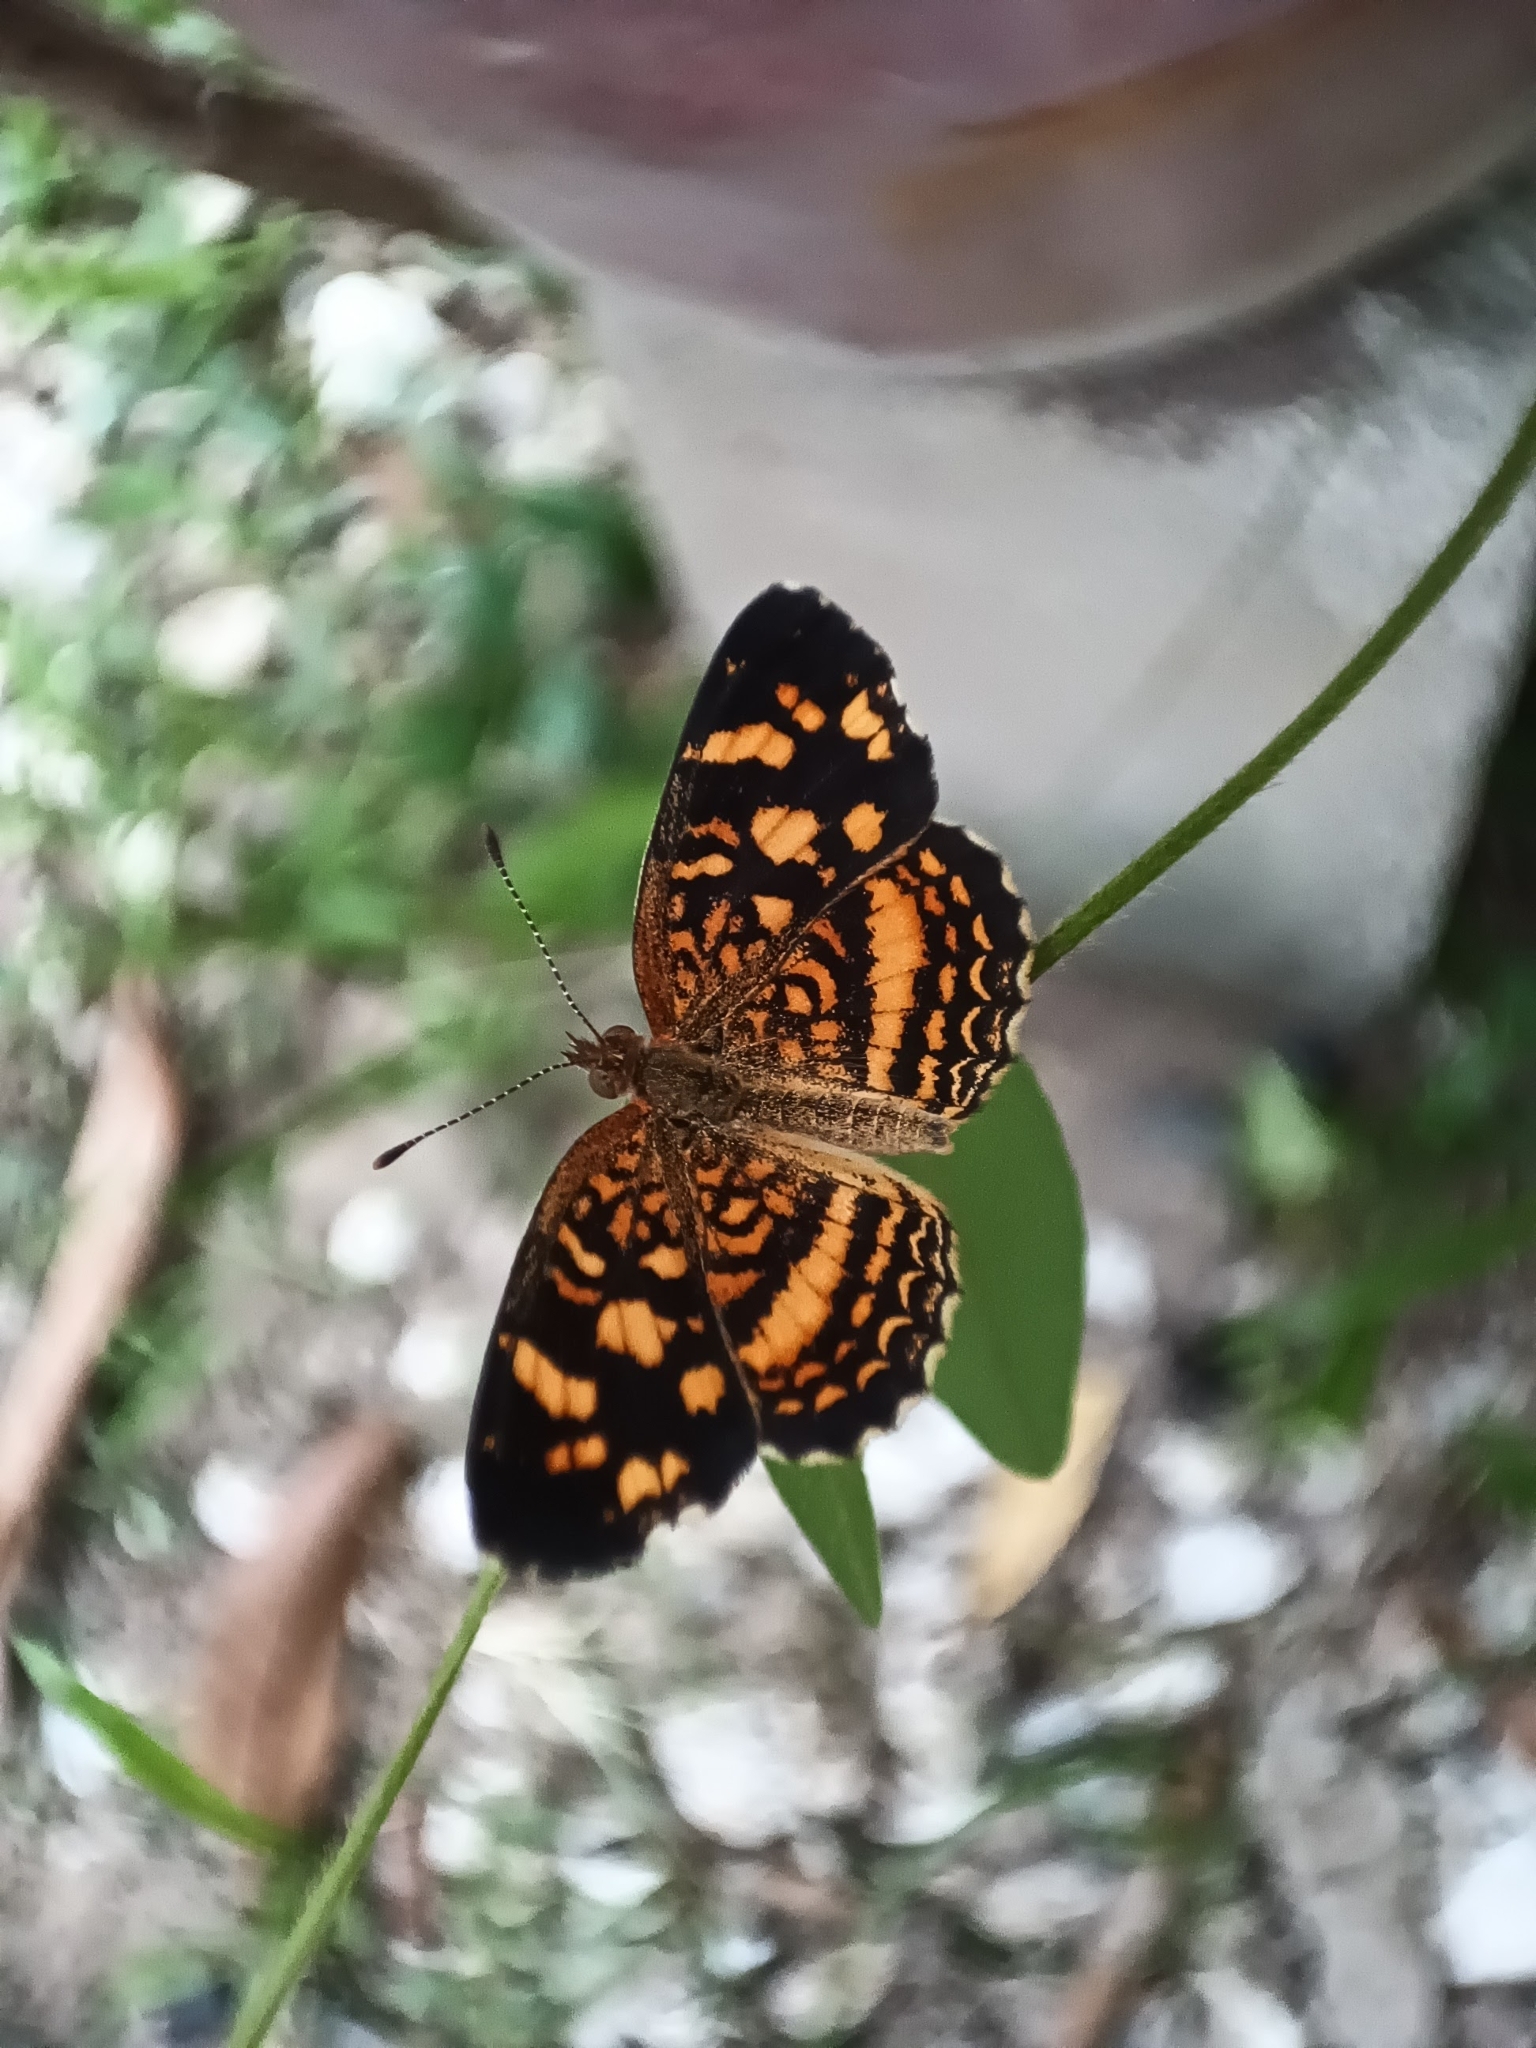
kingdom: Animalia
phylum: Arthropoda
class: Insecta
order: Lepidoptera
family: Nymphalidae
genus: Anthanassa
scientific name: Anthanassa drusilla
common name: Orange-patched crescent
